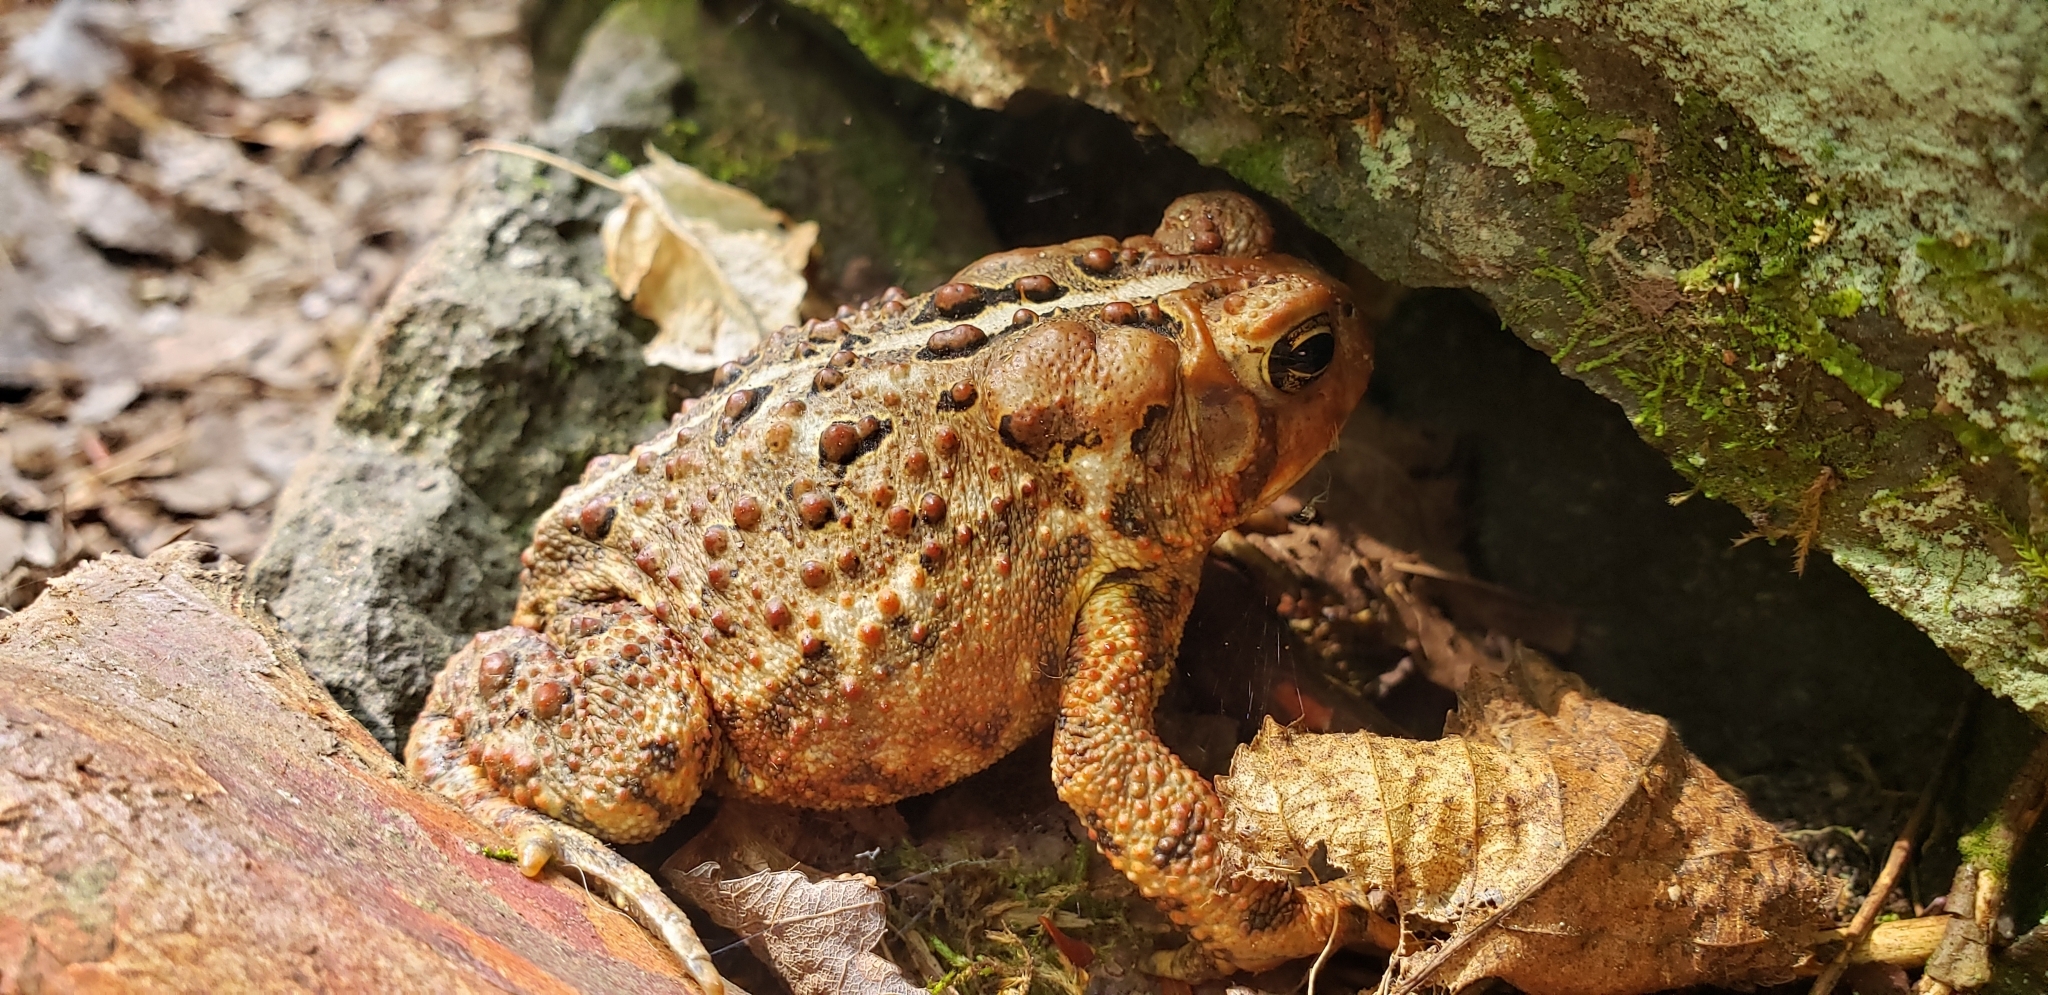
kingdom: Animalia
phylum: Chordata
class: Amphibia
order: Anura
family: Bufonidae
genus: Anaxyrus
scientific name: Anaxyrus americanus
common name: American toad
